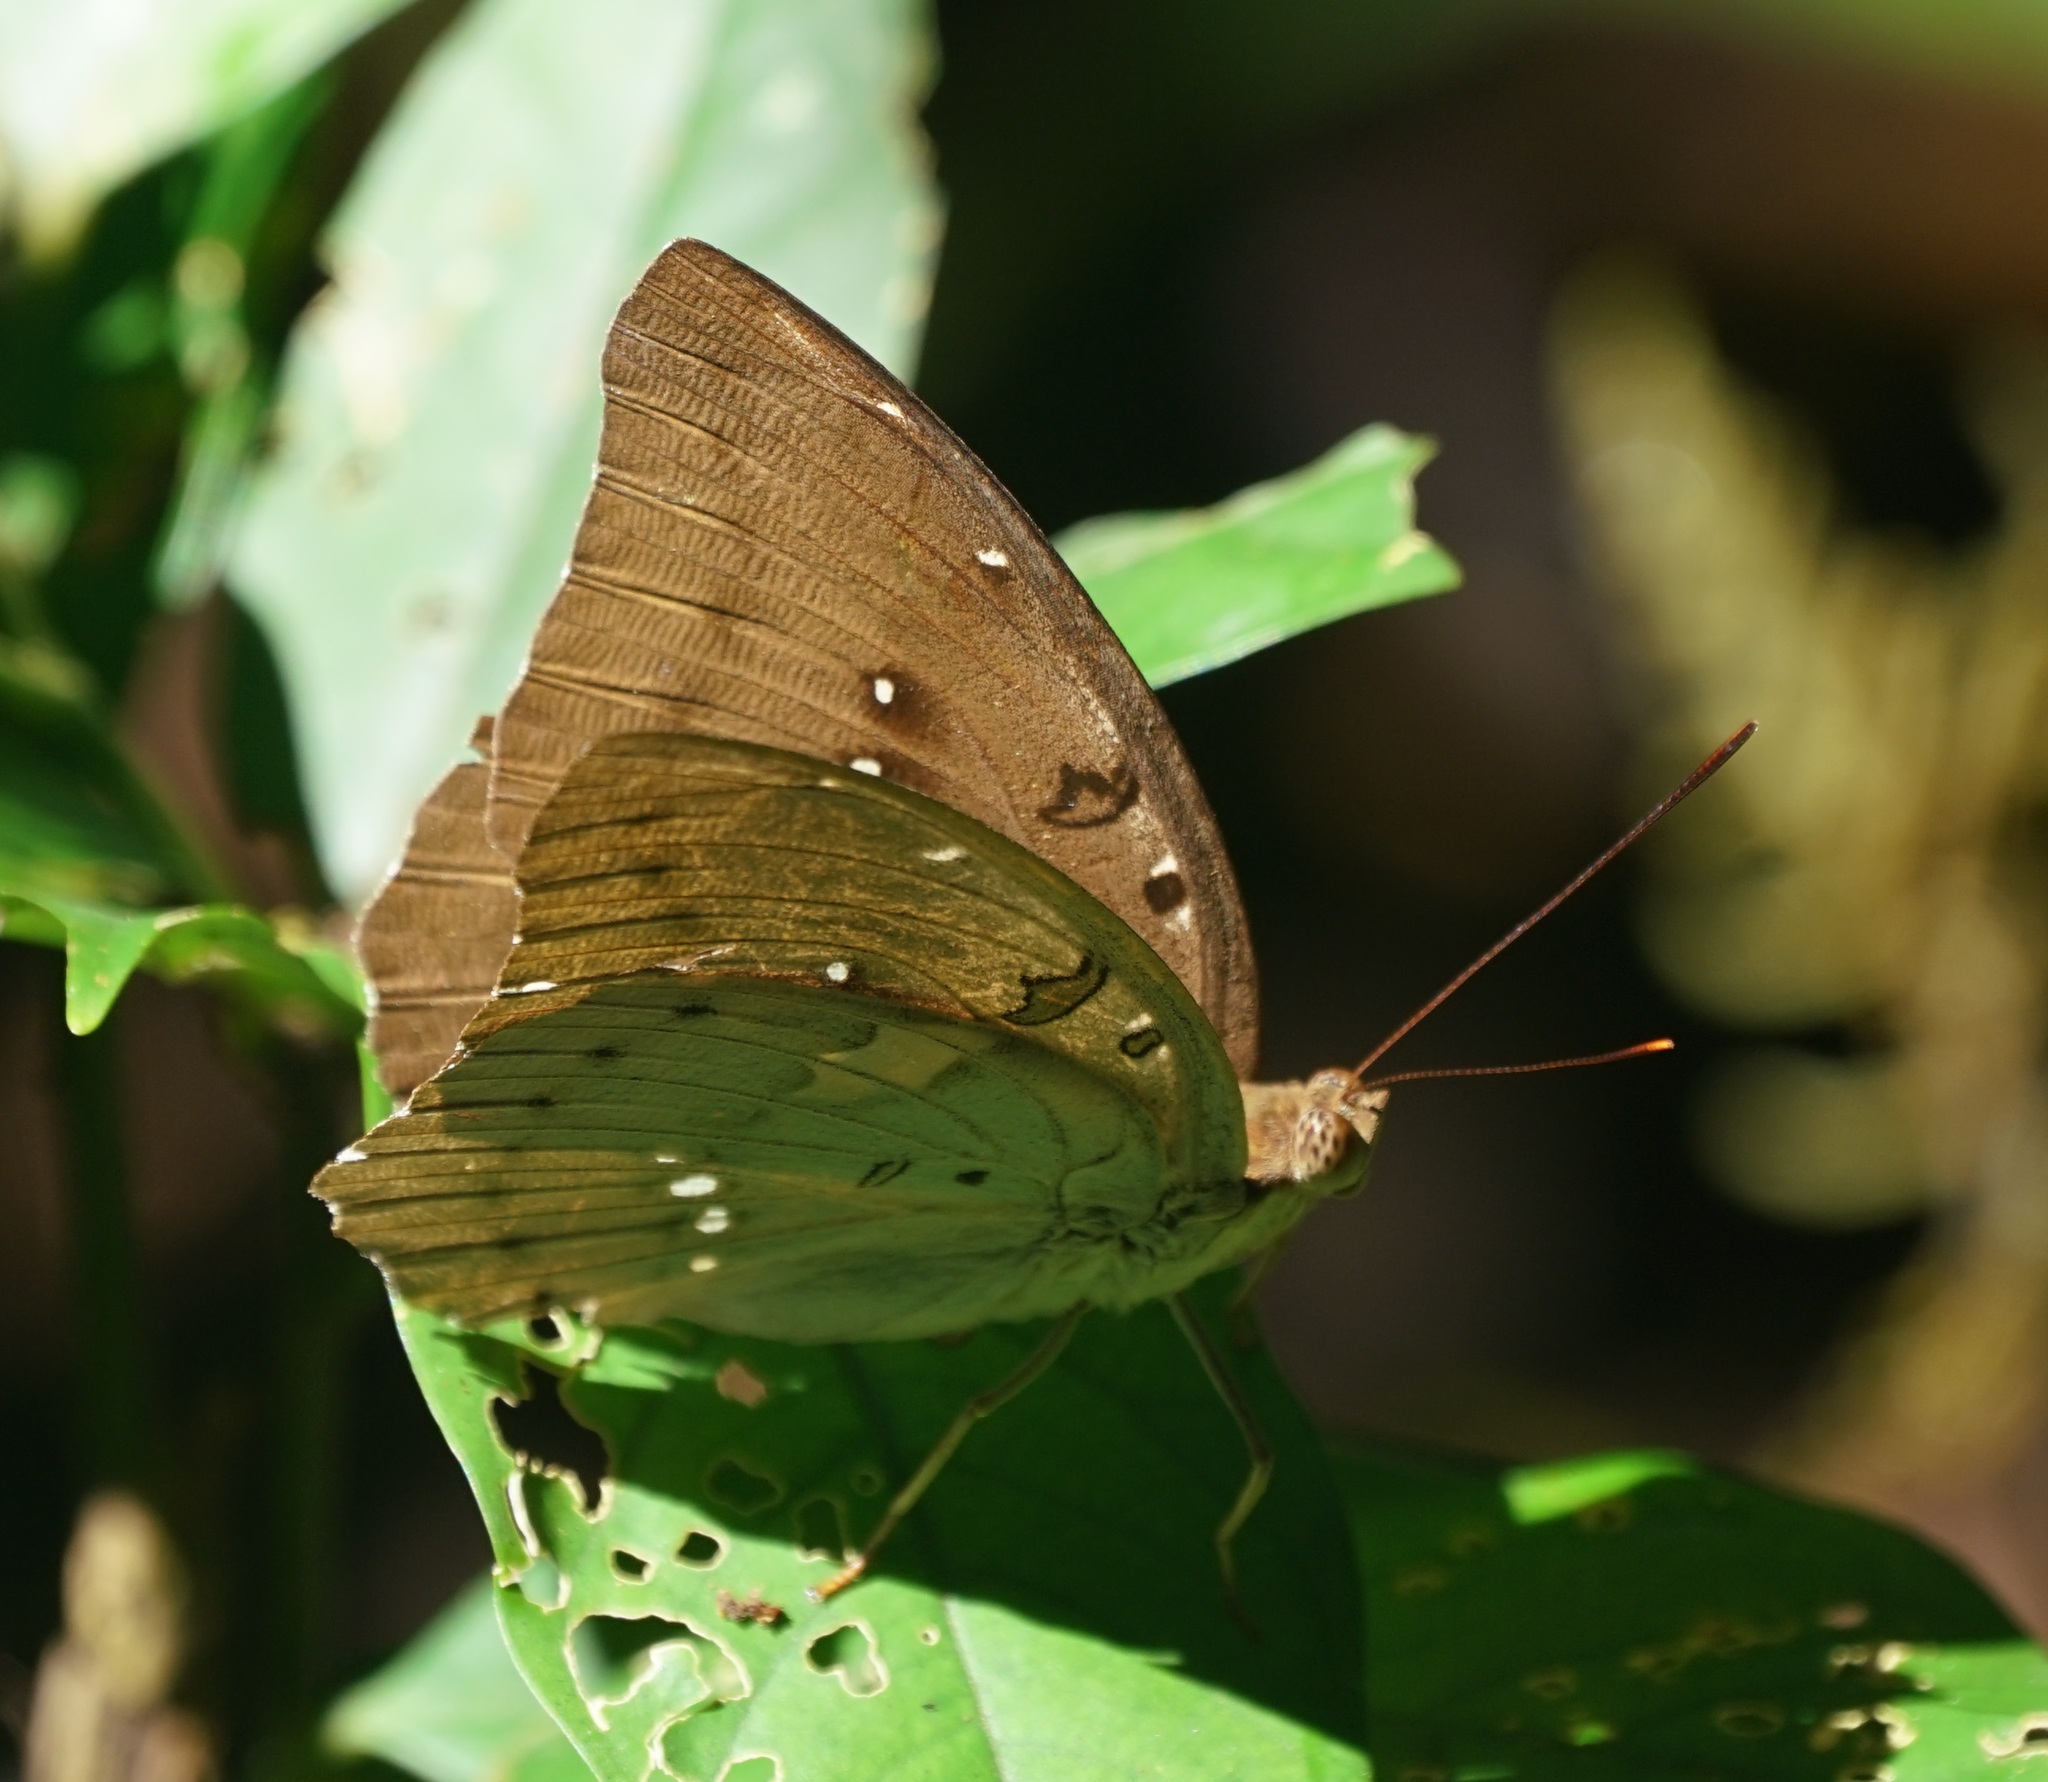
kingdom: Animalia
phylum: Arthropoda
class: Insecta
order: Lepidoptera
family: Nymphalidae
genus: Euthalia
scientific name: Euthalia Bassarona dunya
